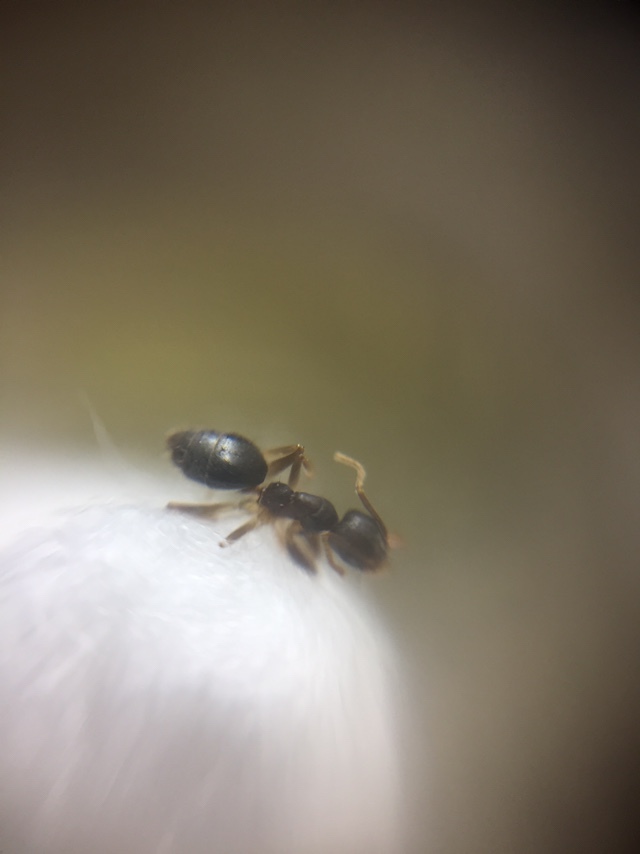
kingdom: Animalia
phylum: Arthropoda
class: Insecta
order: Hymenoptera
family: Formicidae
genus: Technomyrmex
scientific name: Technomyrmex vitiensis
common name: Ant
